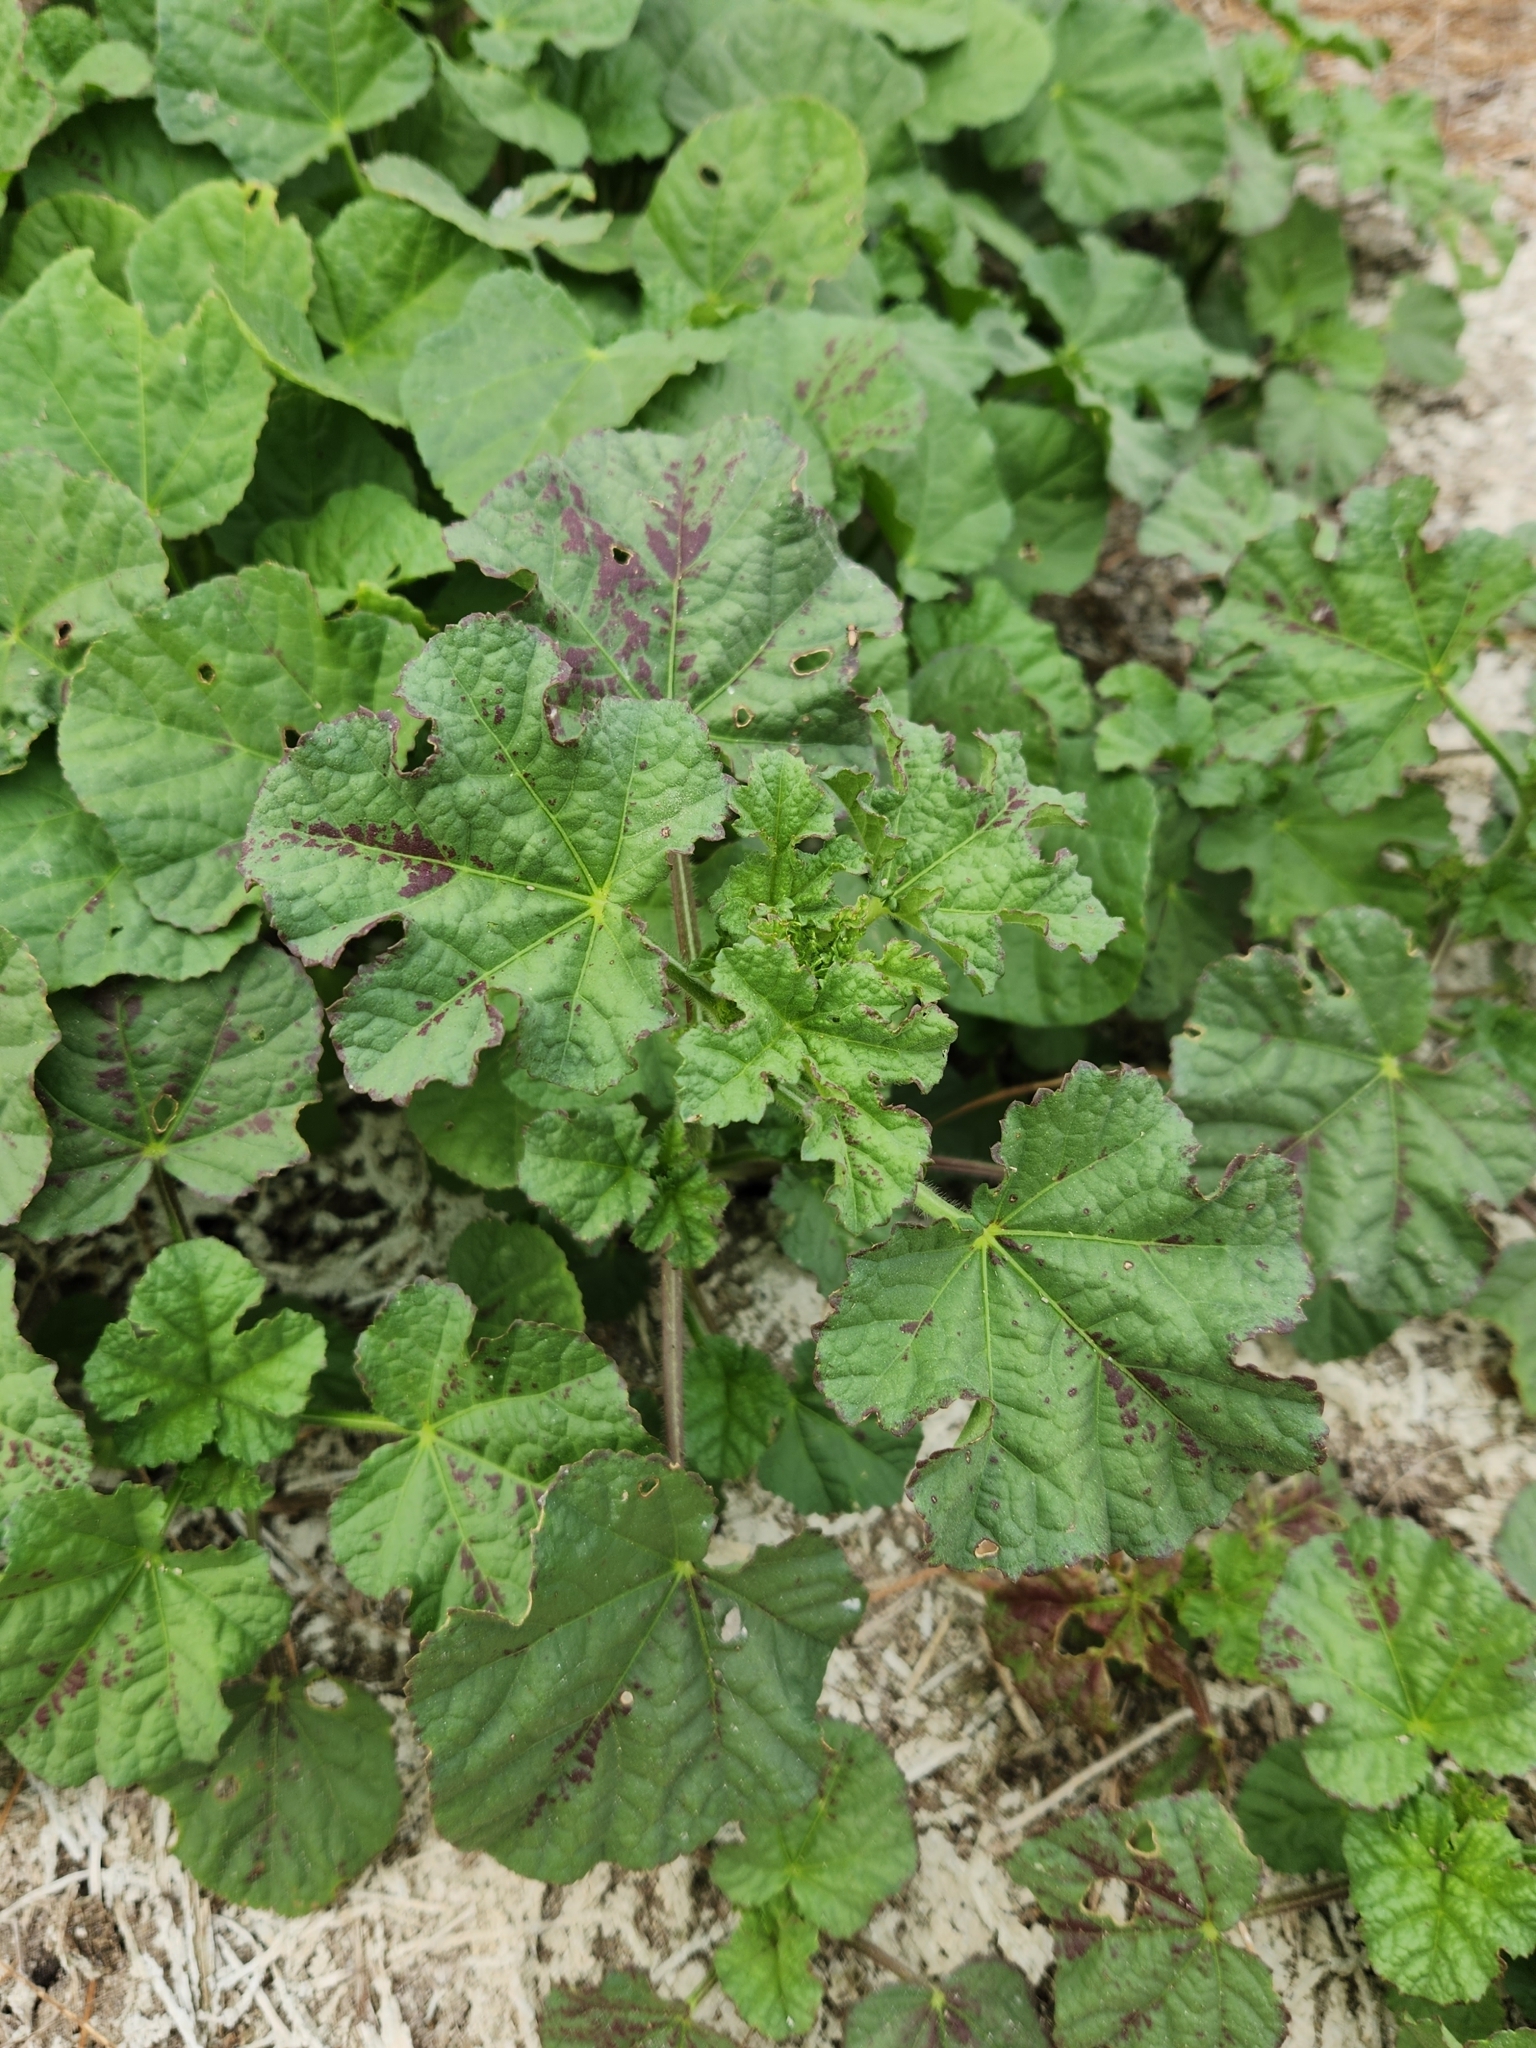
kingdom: Plantae
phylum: Tracheophyta
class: Magnoliopsida
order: Malvales
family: Malvaceae
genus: Malva
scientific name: Malva parviflora
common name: Least mallow
